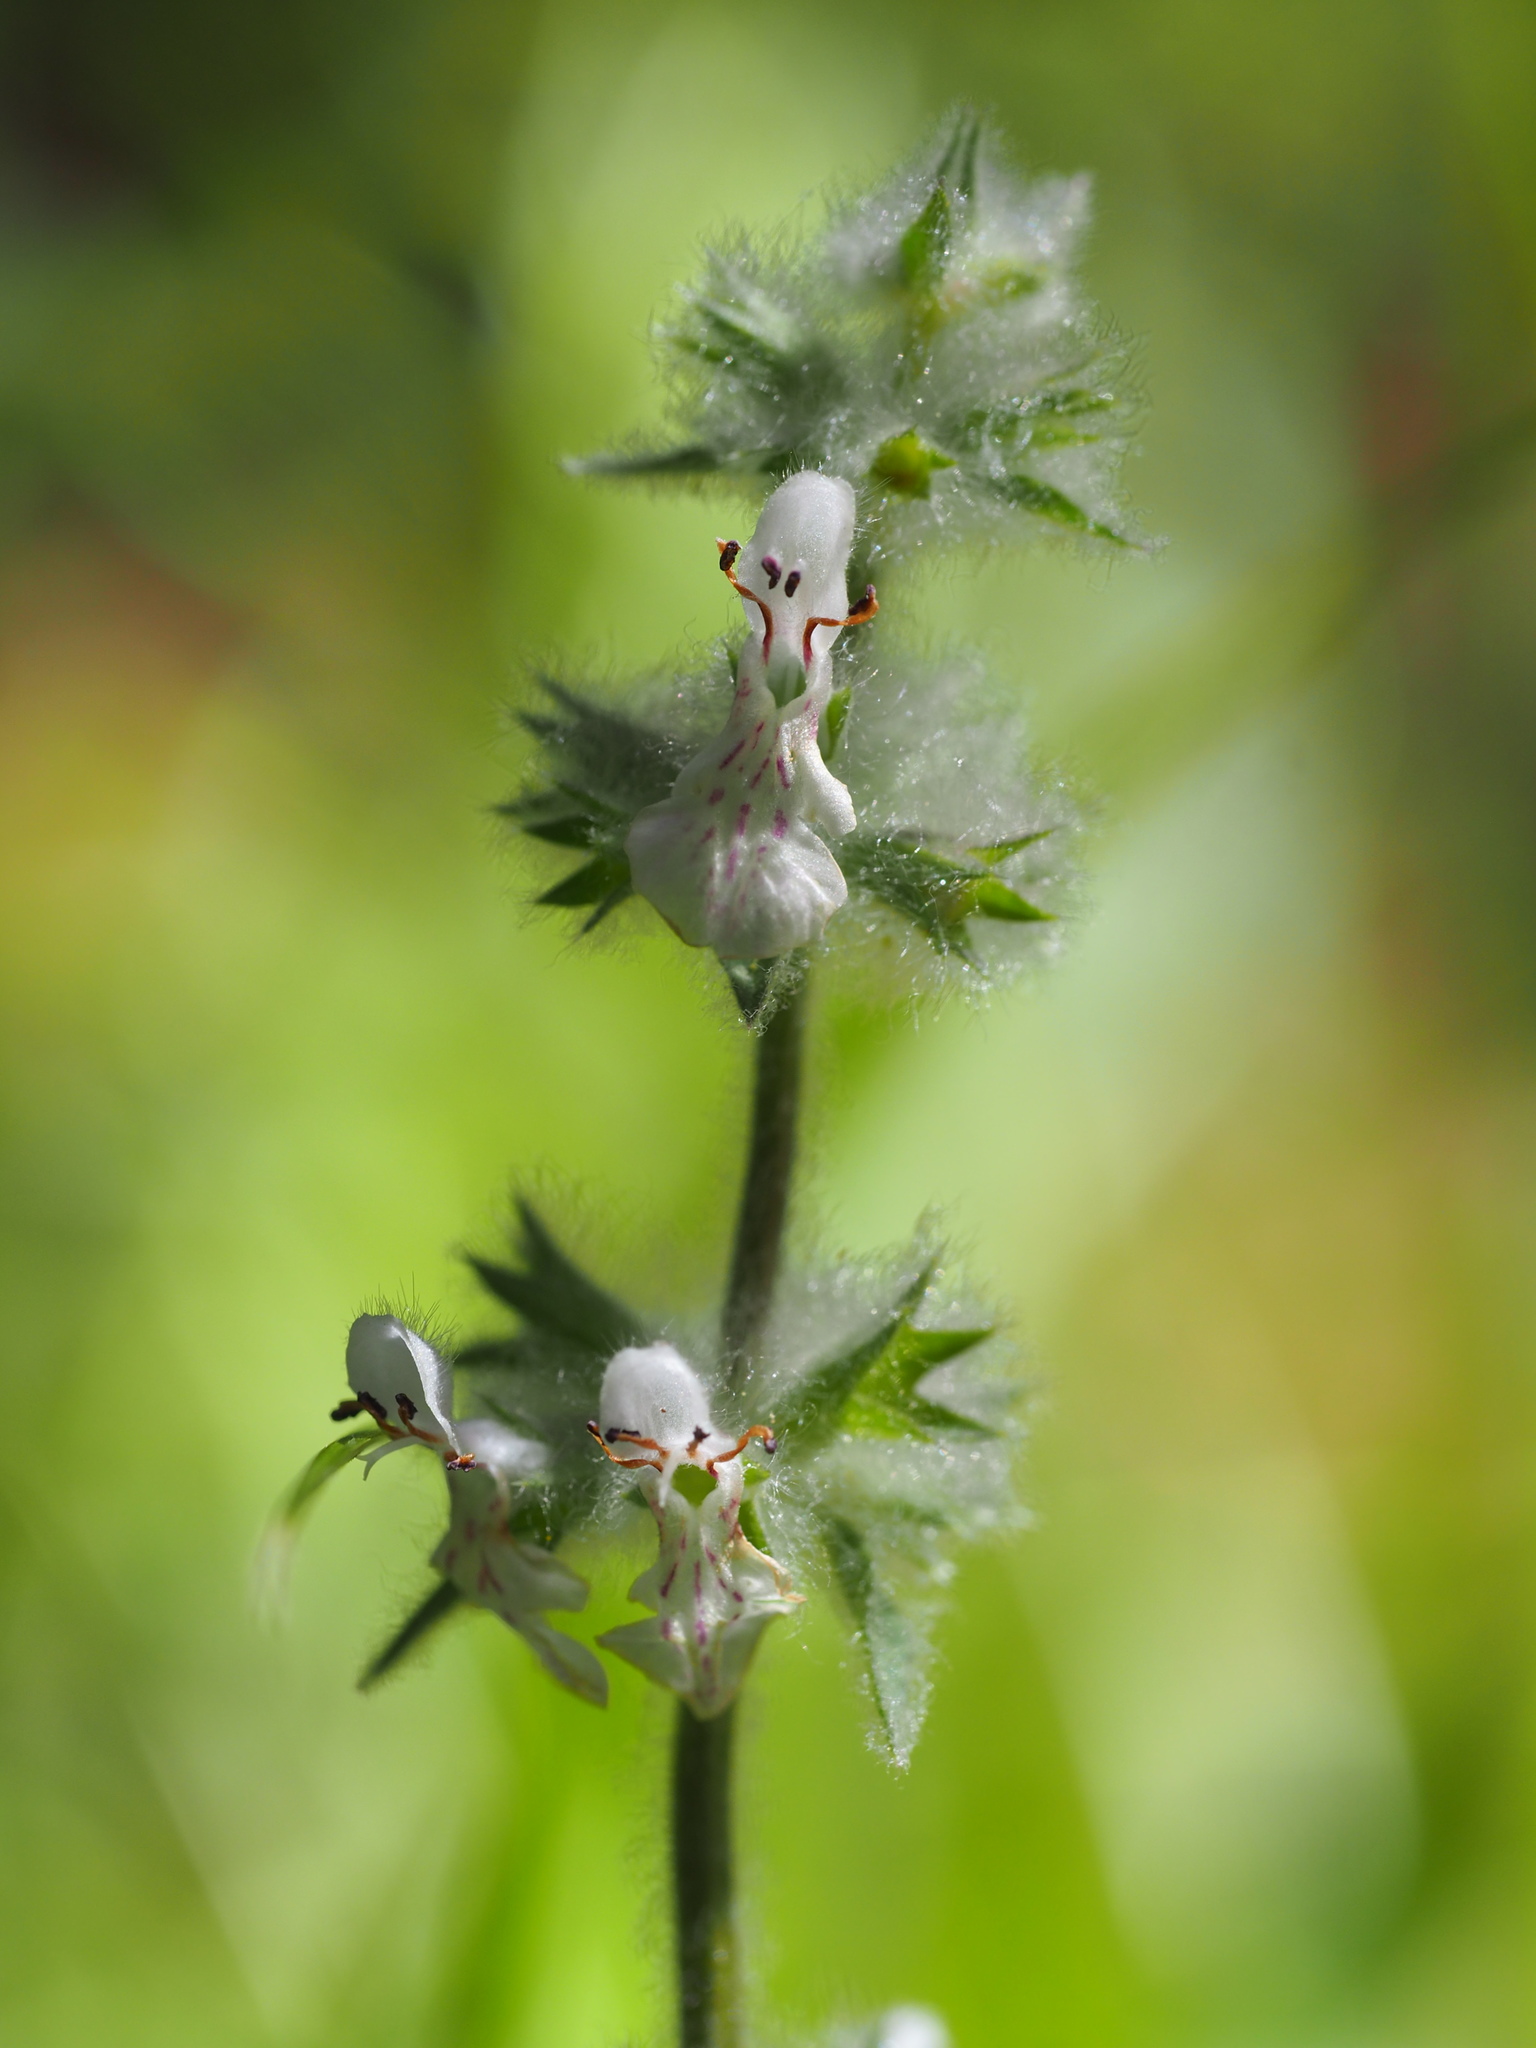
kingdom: Plantae
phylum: Tracheophyta
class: Magnoliopsida
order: Lamiales
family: Lamiaceae
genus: Stachys
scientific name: Stachys albens
